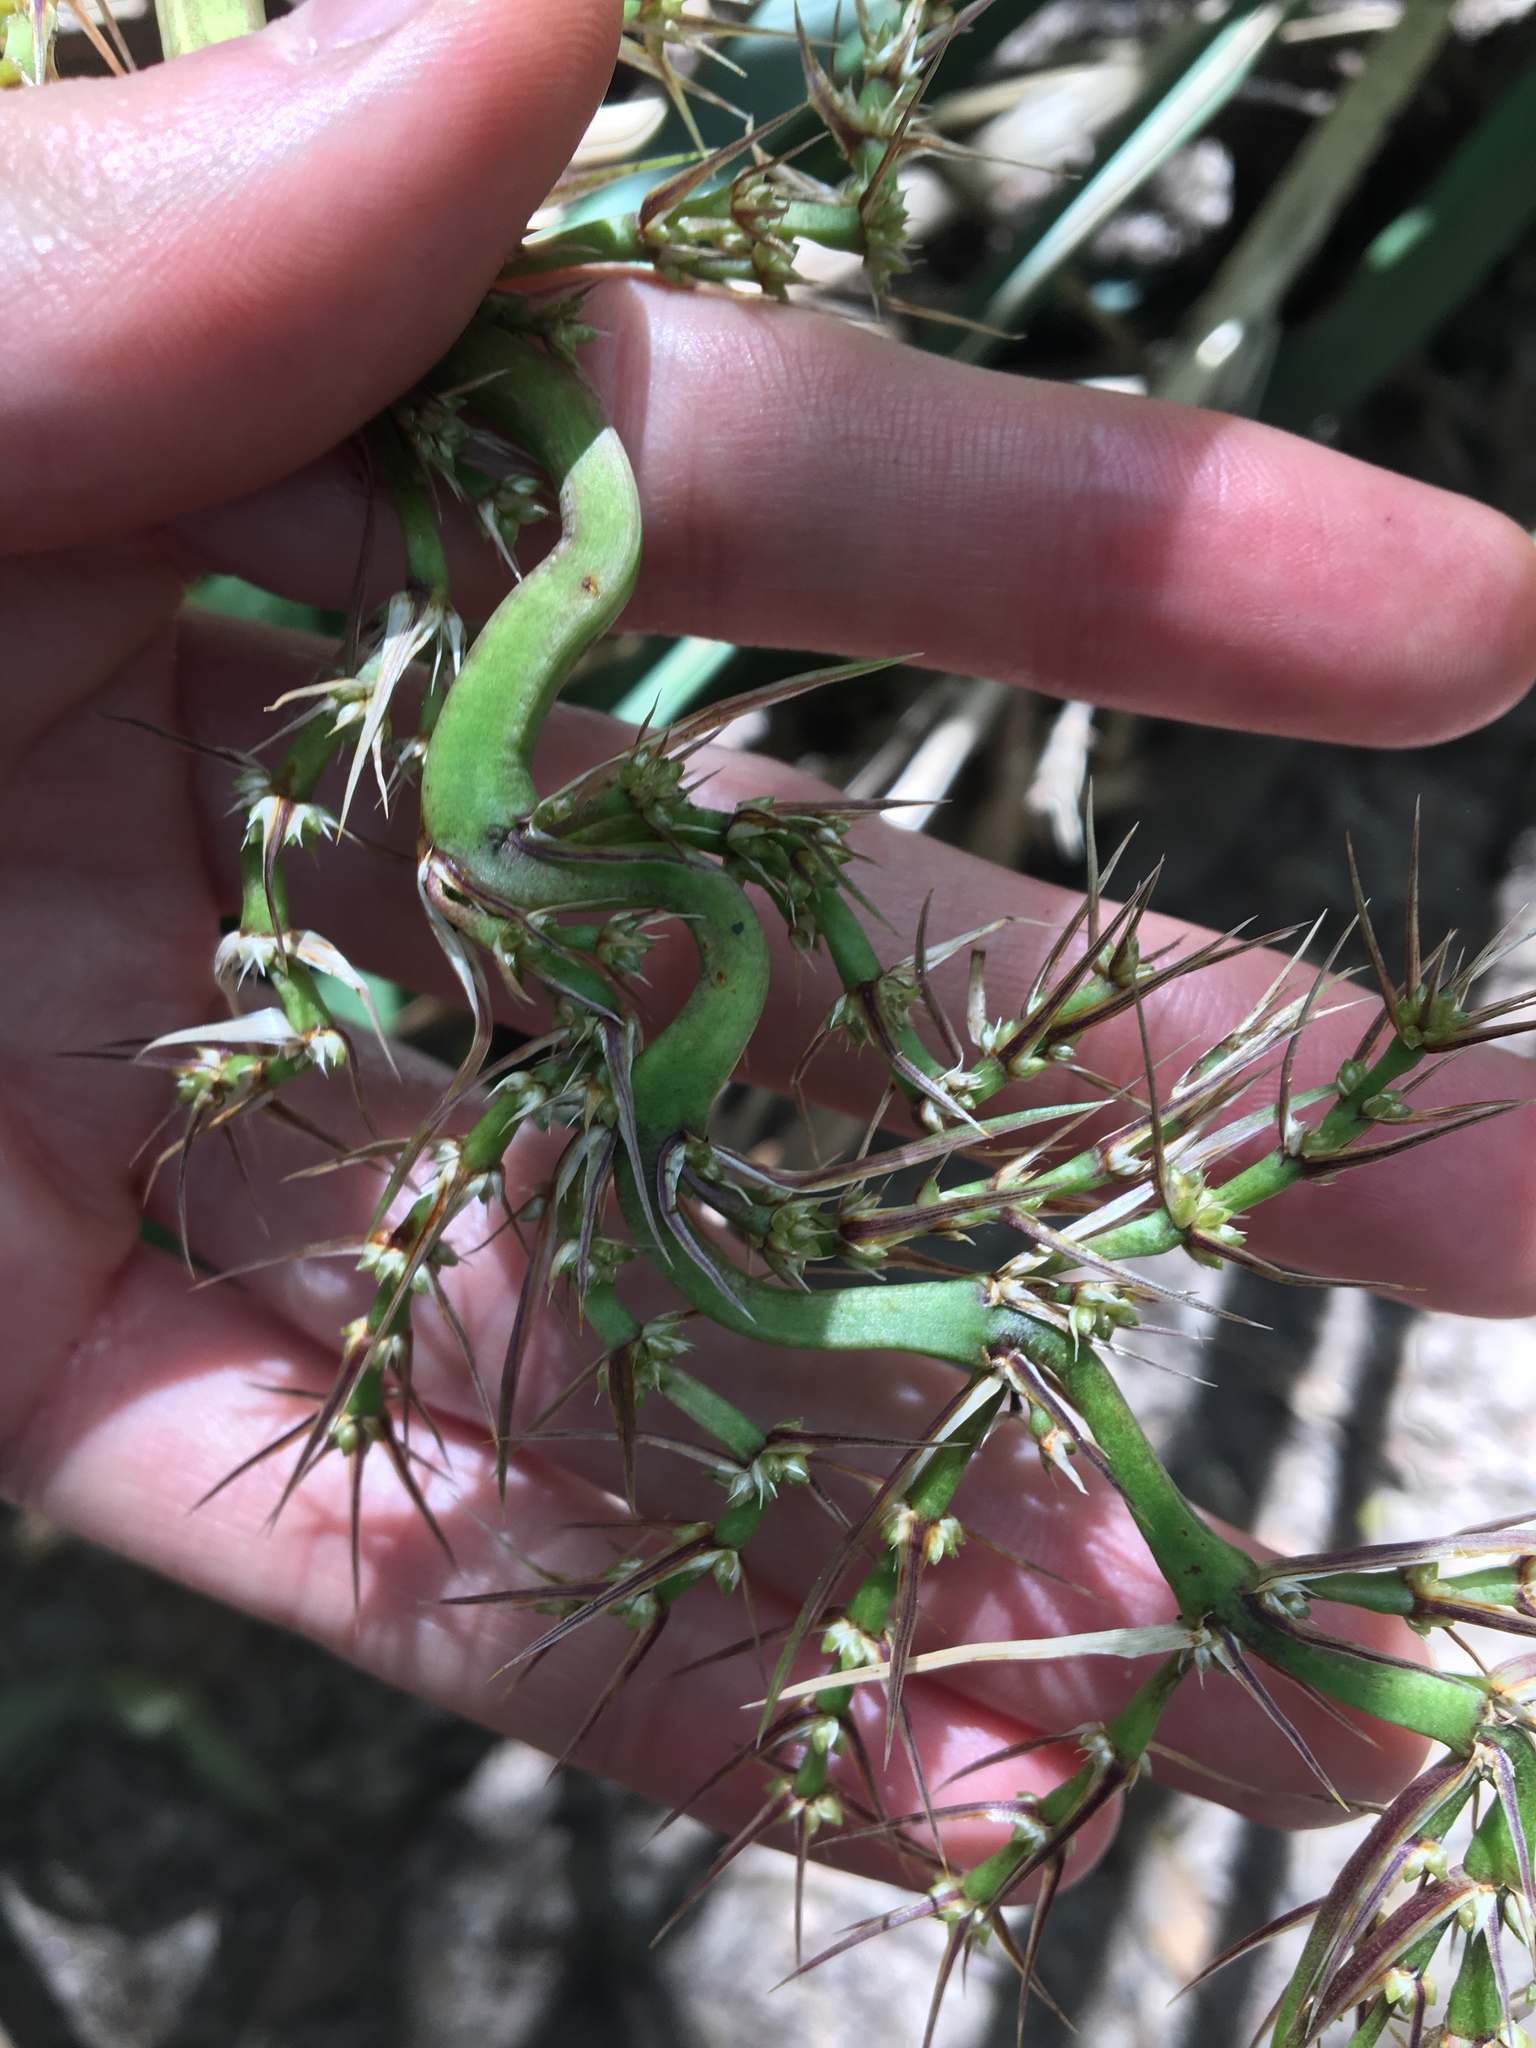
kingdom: Plantae
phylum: Tracheophyta
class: Liliopsida
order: Asparagales
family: Asparagaceae
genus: Lomandra
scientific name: Lomandra longifolia
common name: Longleaf mat-rush
